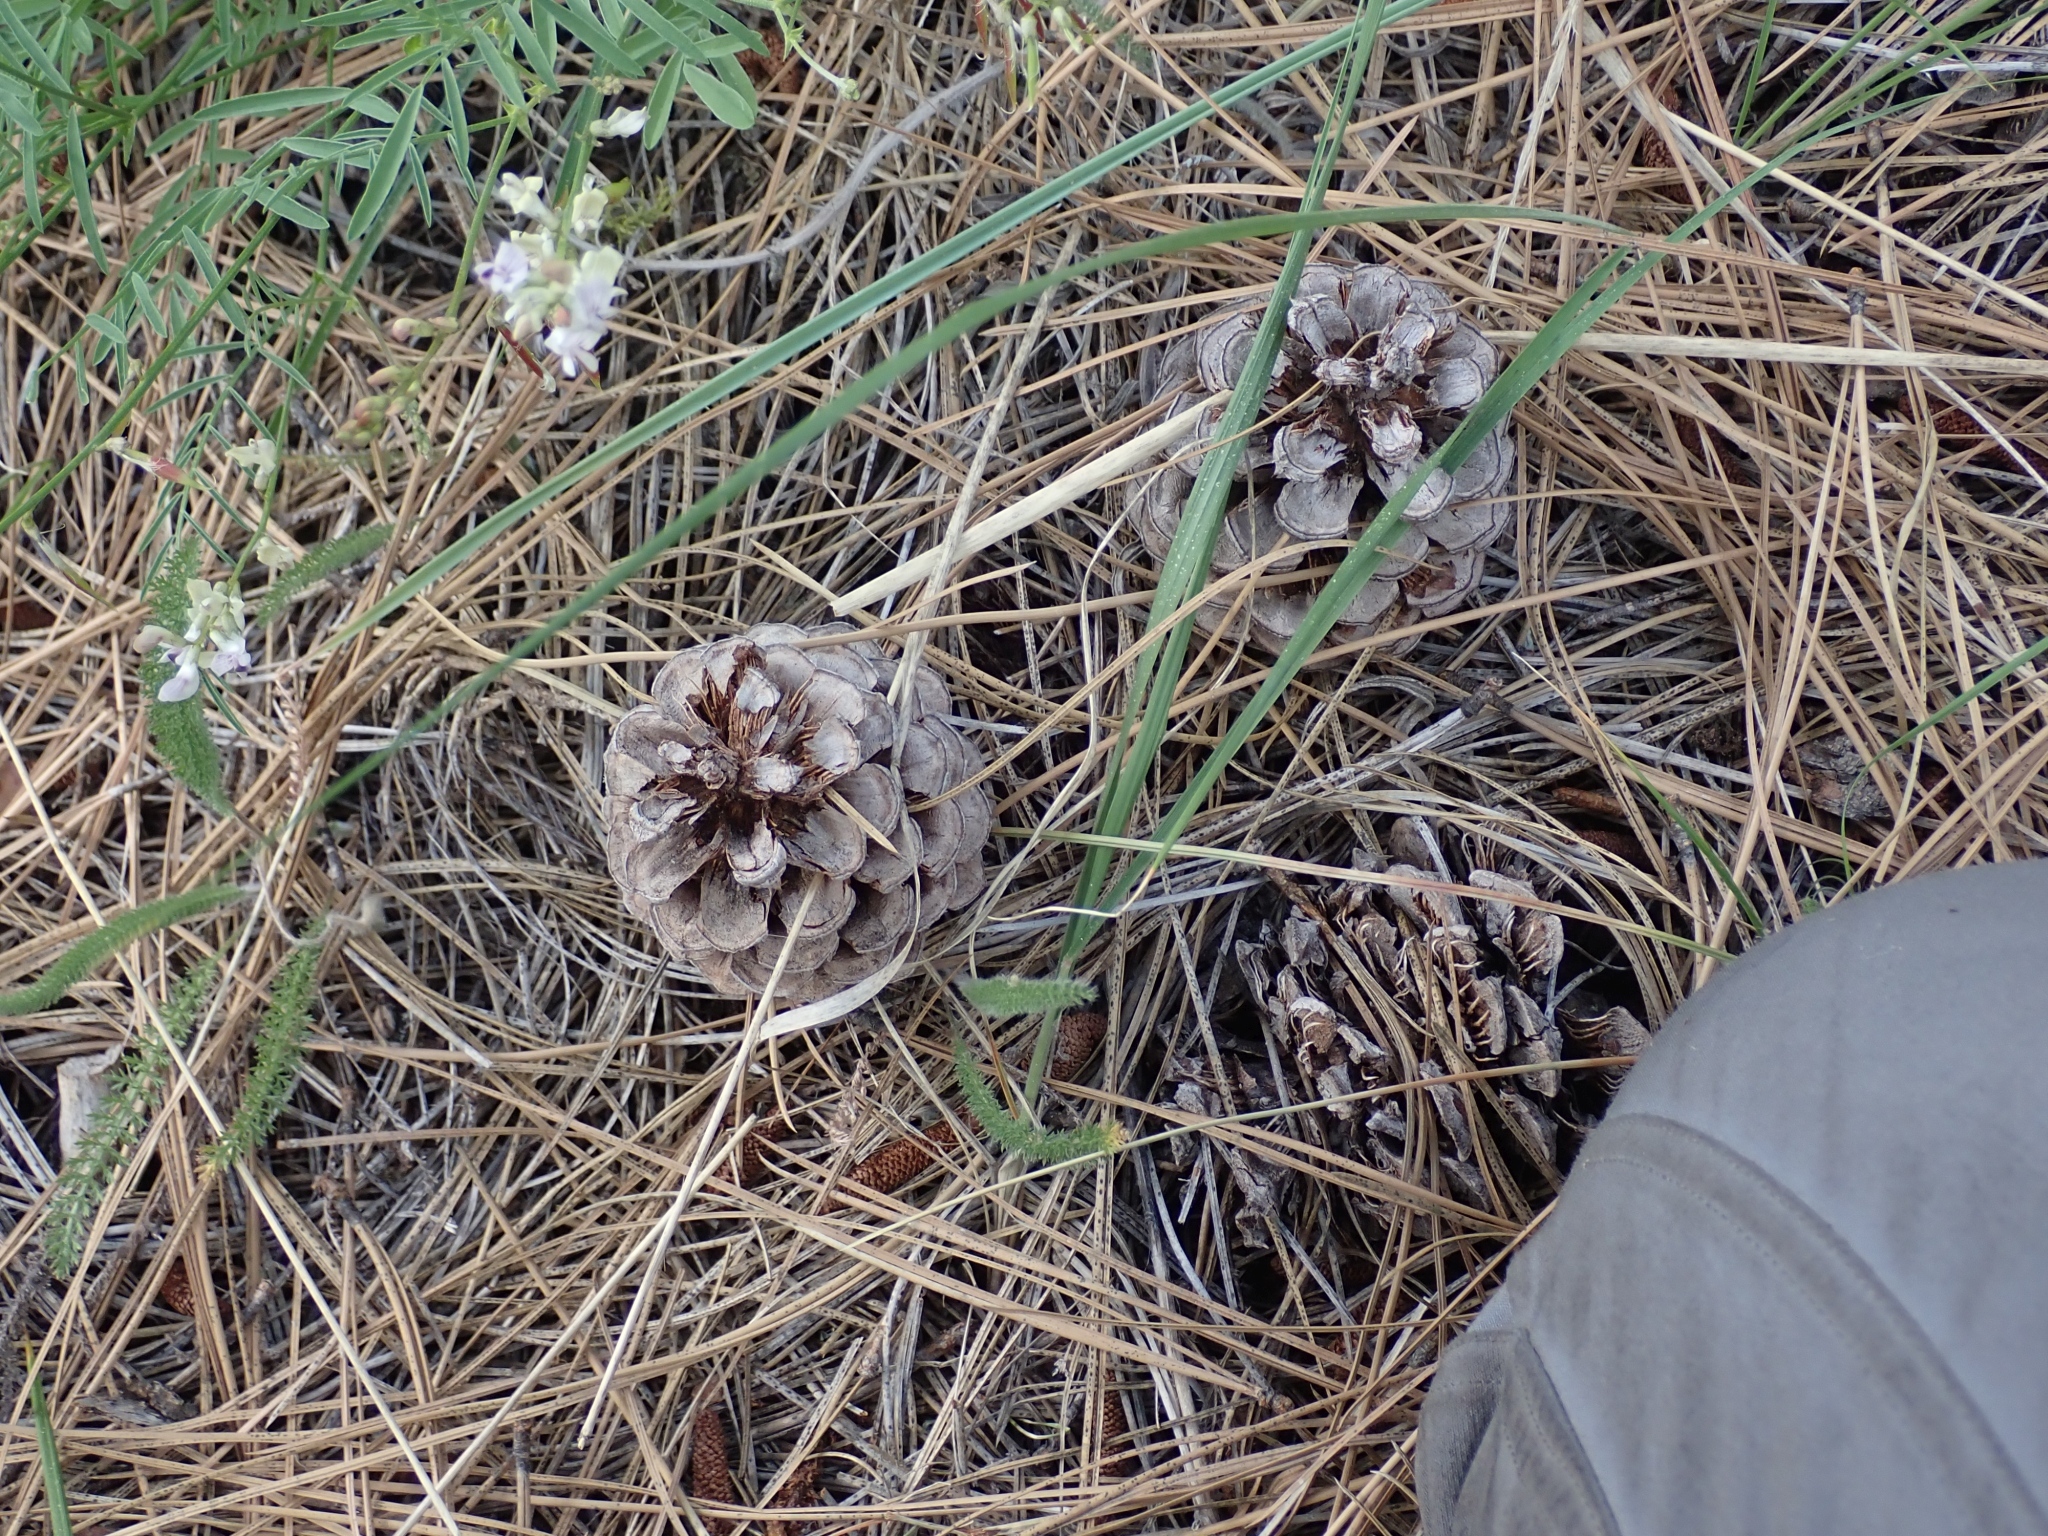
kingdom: Plantae
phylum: Tracheophyta
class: Pinopsida
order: Pinales
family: Pinaceae
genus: Pinus
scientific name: Pinus ponderosa
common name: Western yellow-pine
